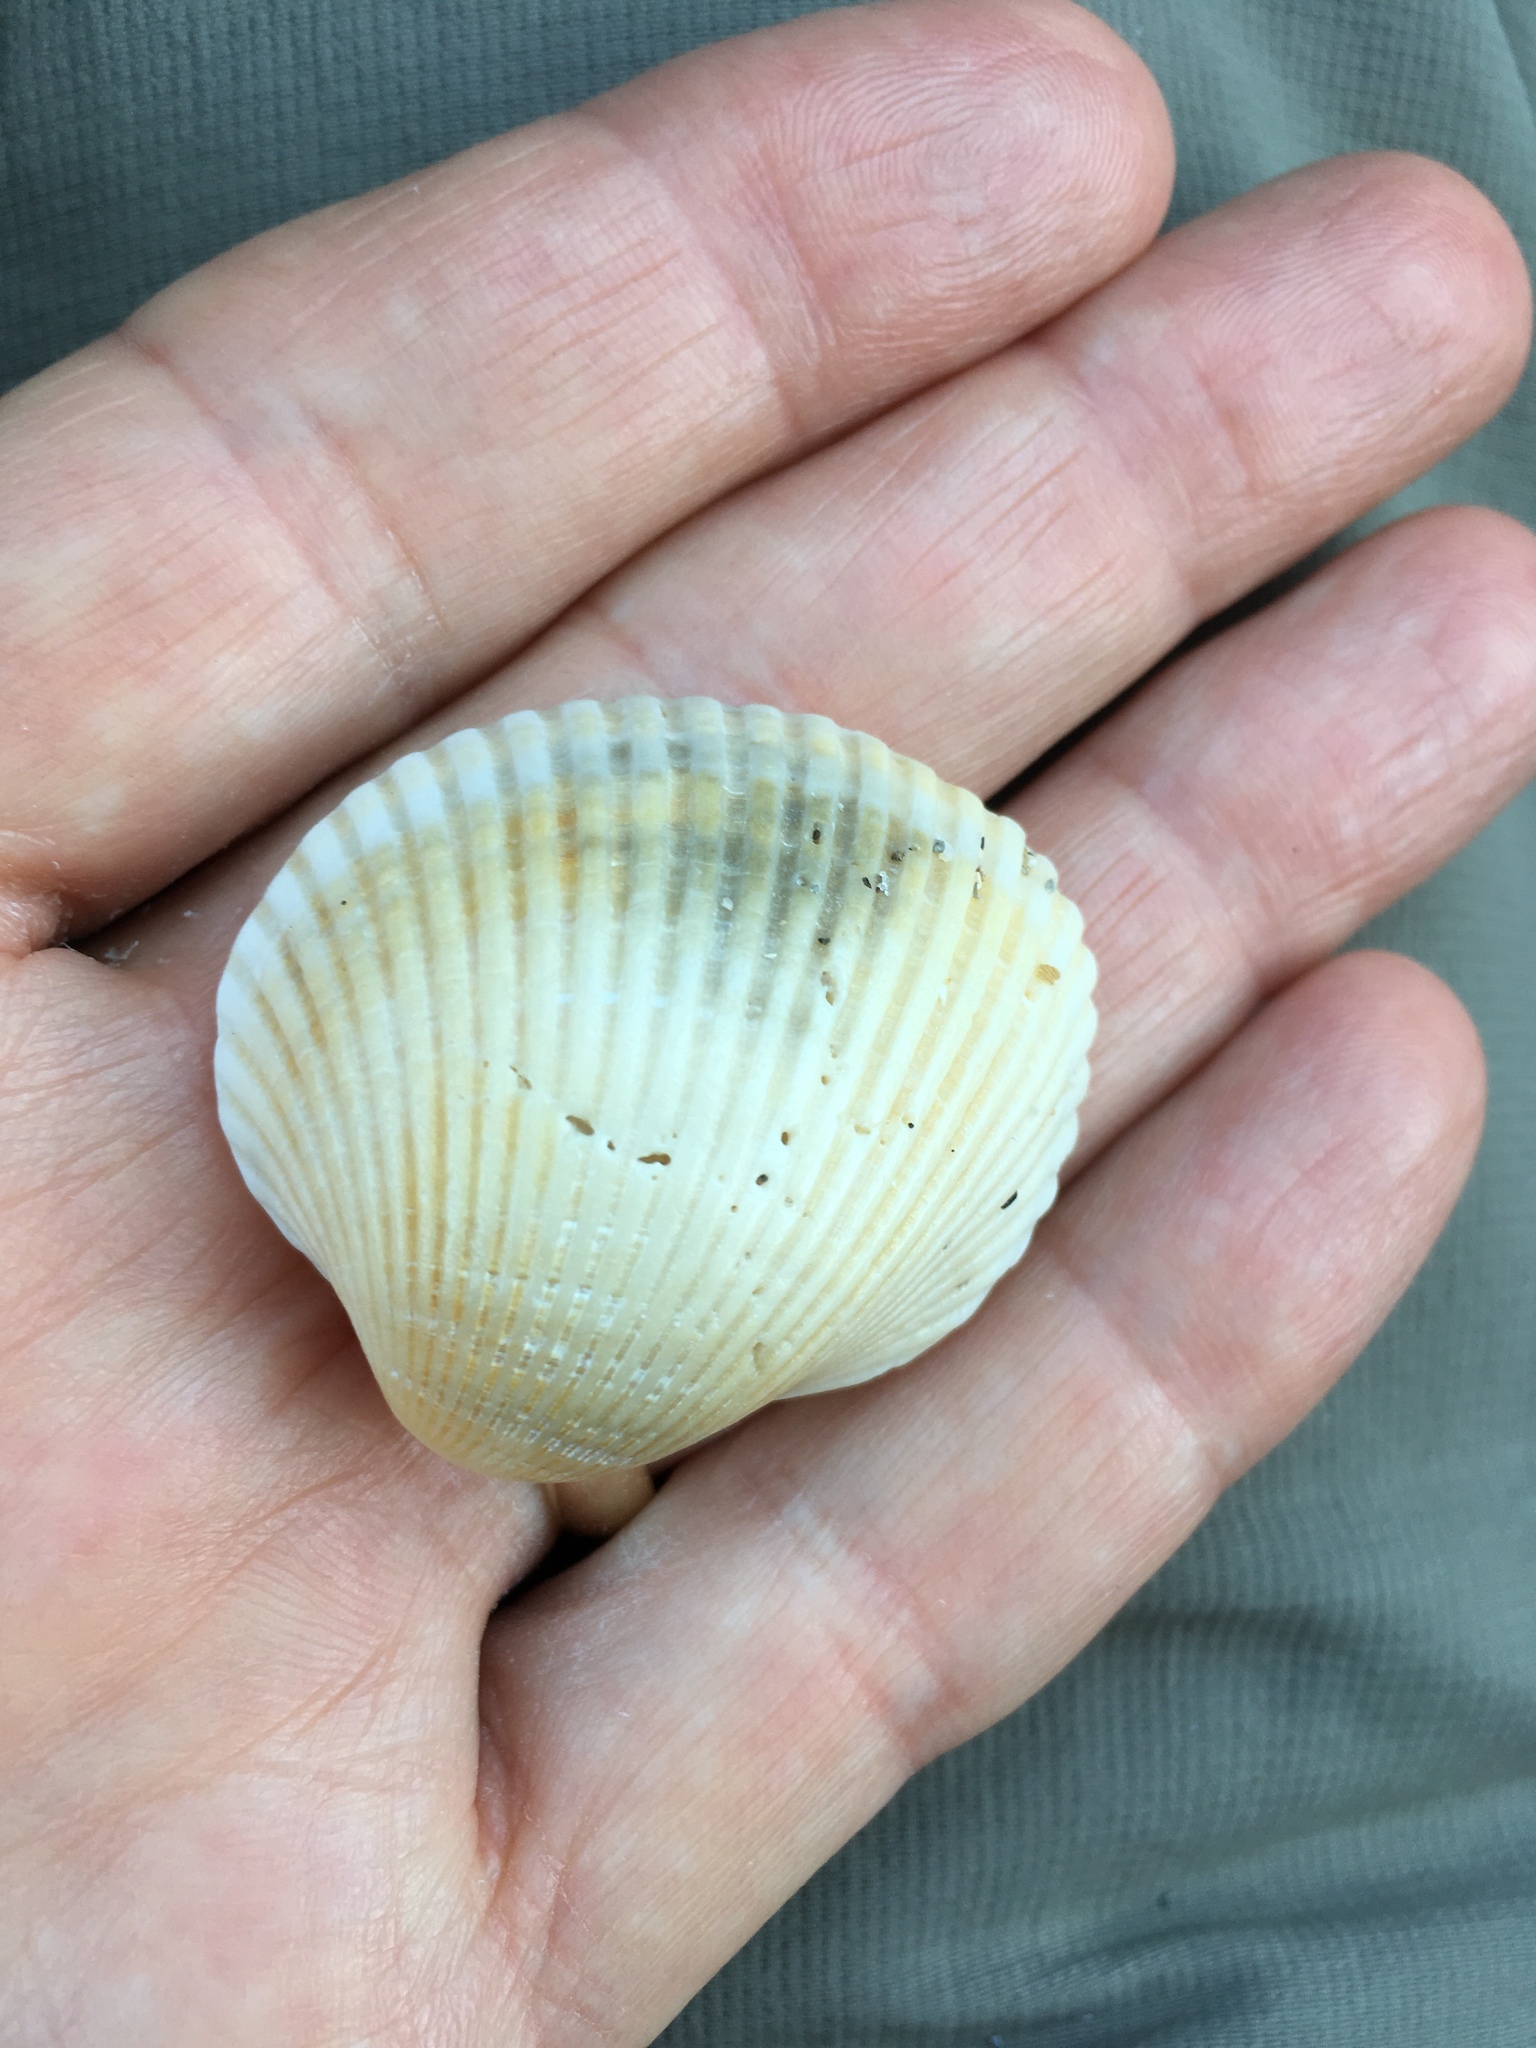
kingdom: Animalia
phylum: Mollusca
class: Bivalvia
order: Arcida
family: Arcidae
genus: Lunarca
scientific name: Lunarca ovalis
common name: Blood ark
